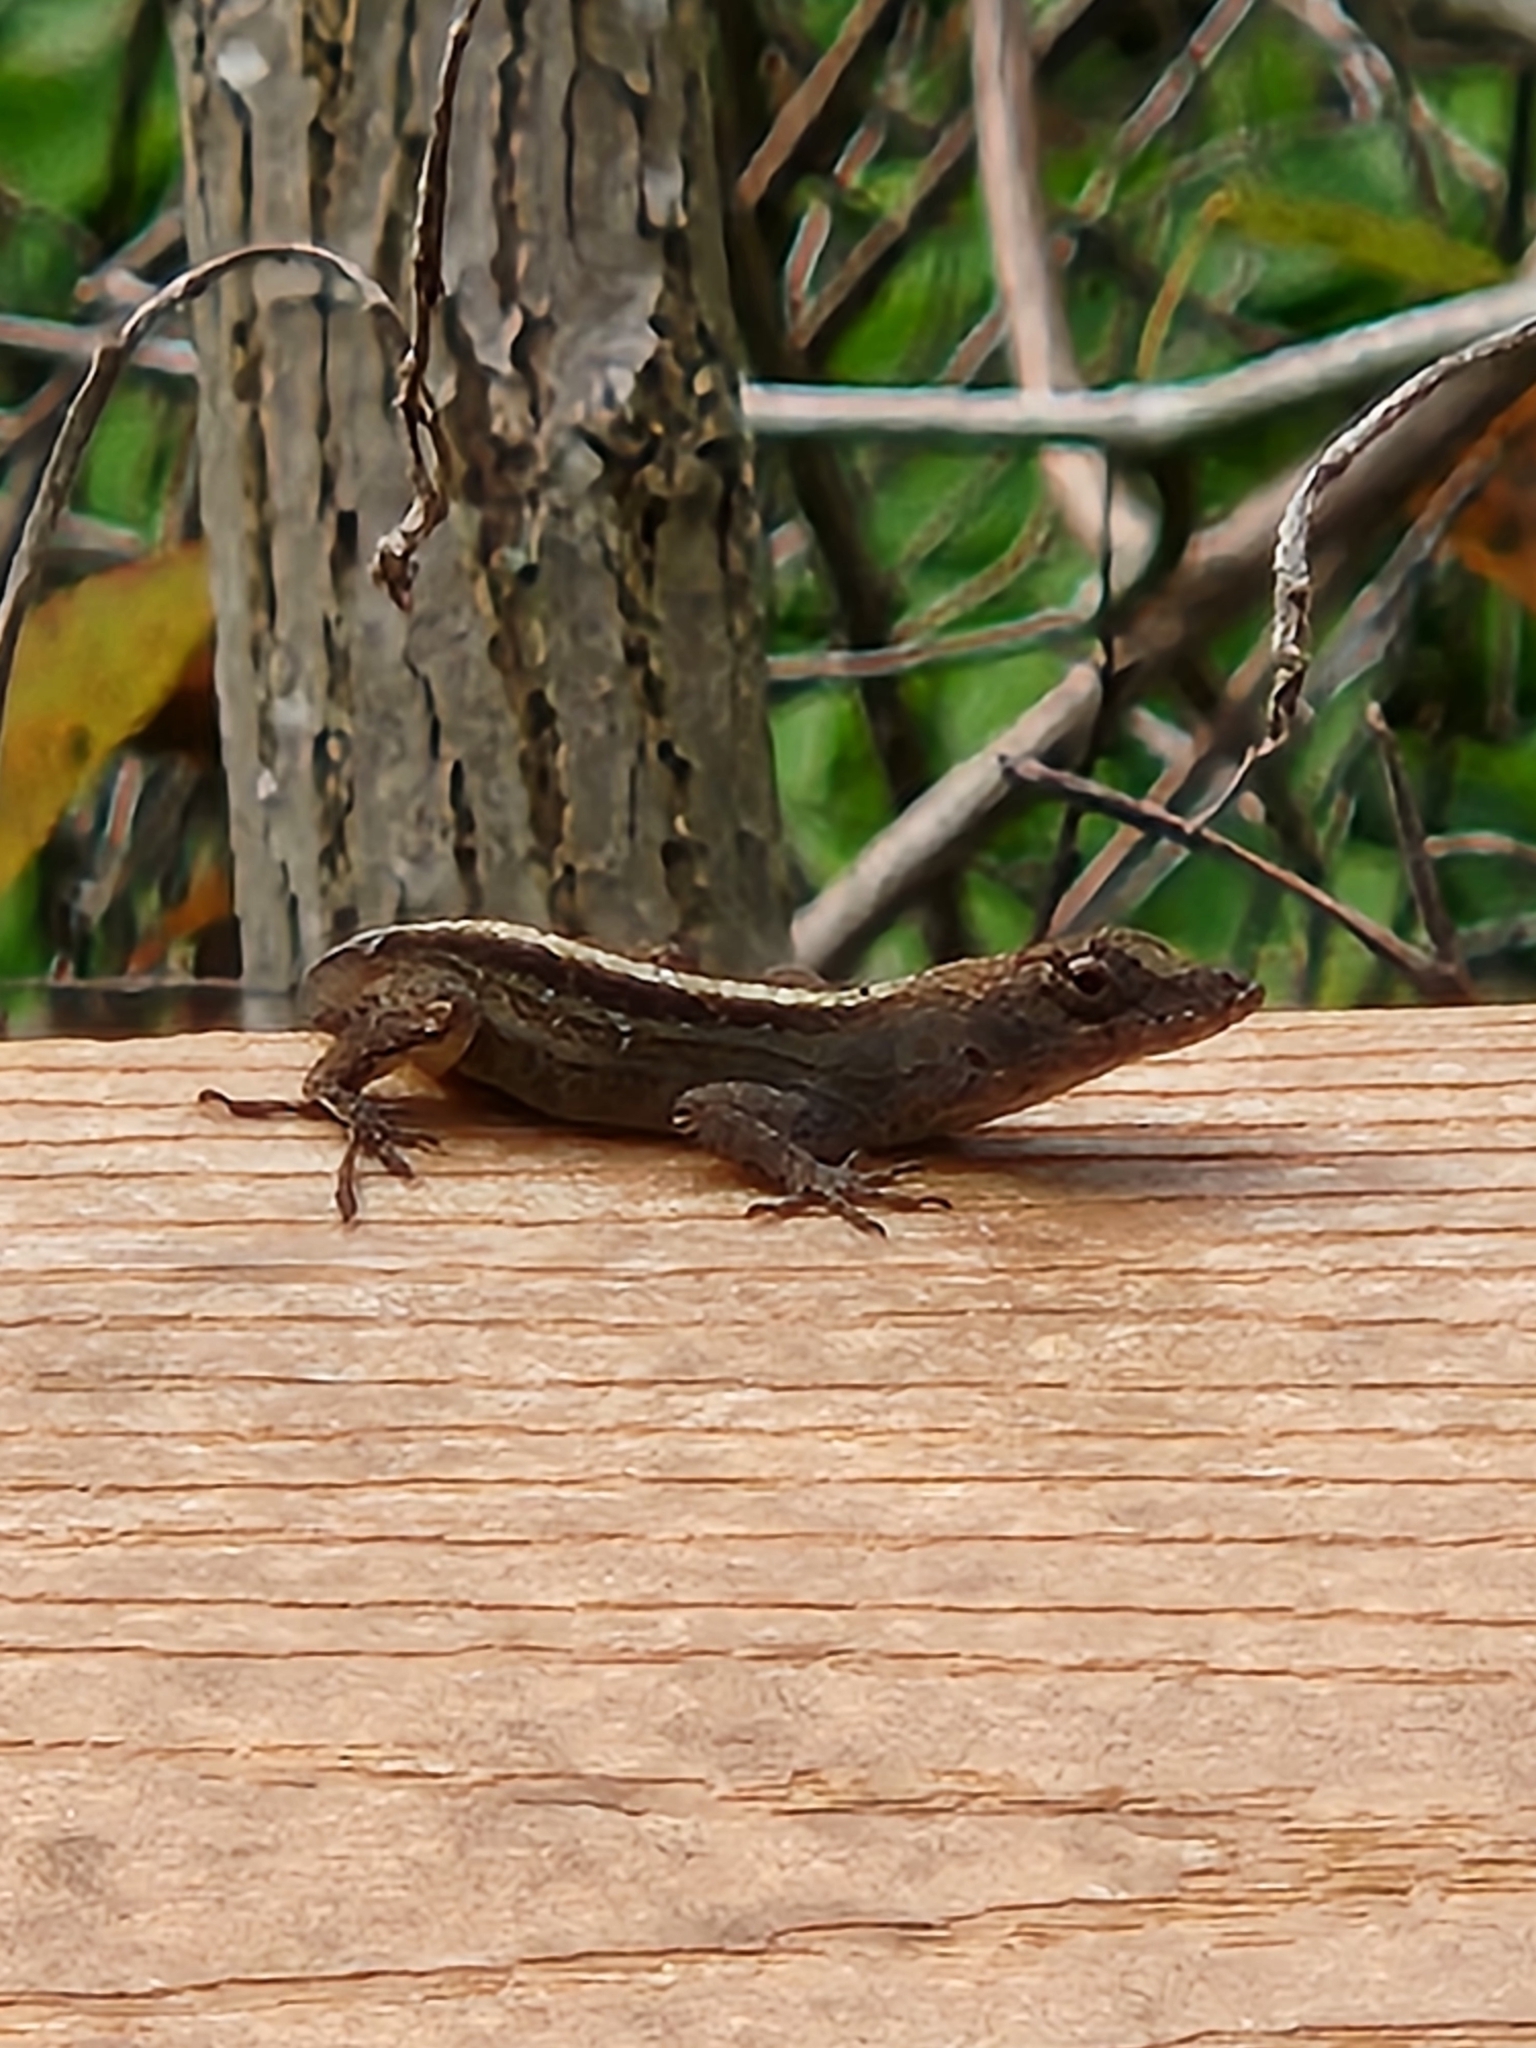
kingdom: Animalia
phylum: Chordata
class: Squamata
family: Dactyloidae
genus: Anolis
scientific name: Anolis sagrei
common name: Brown anole
